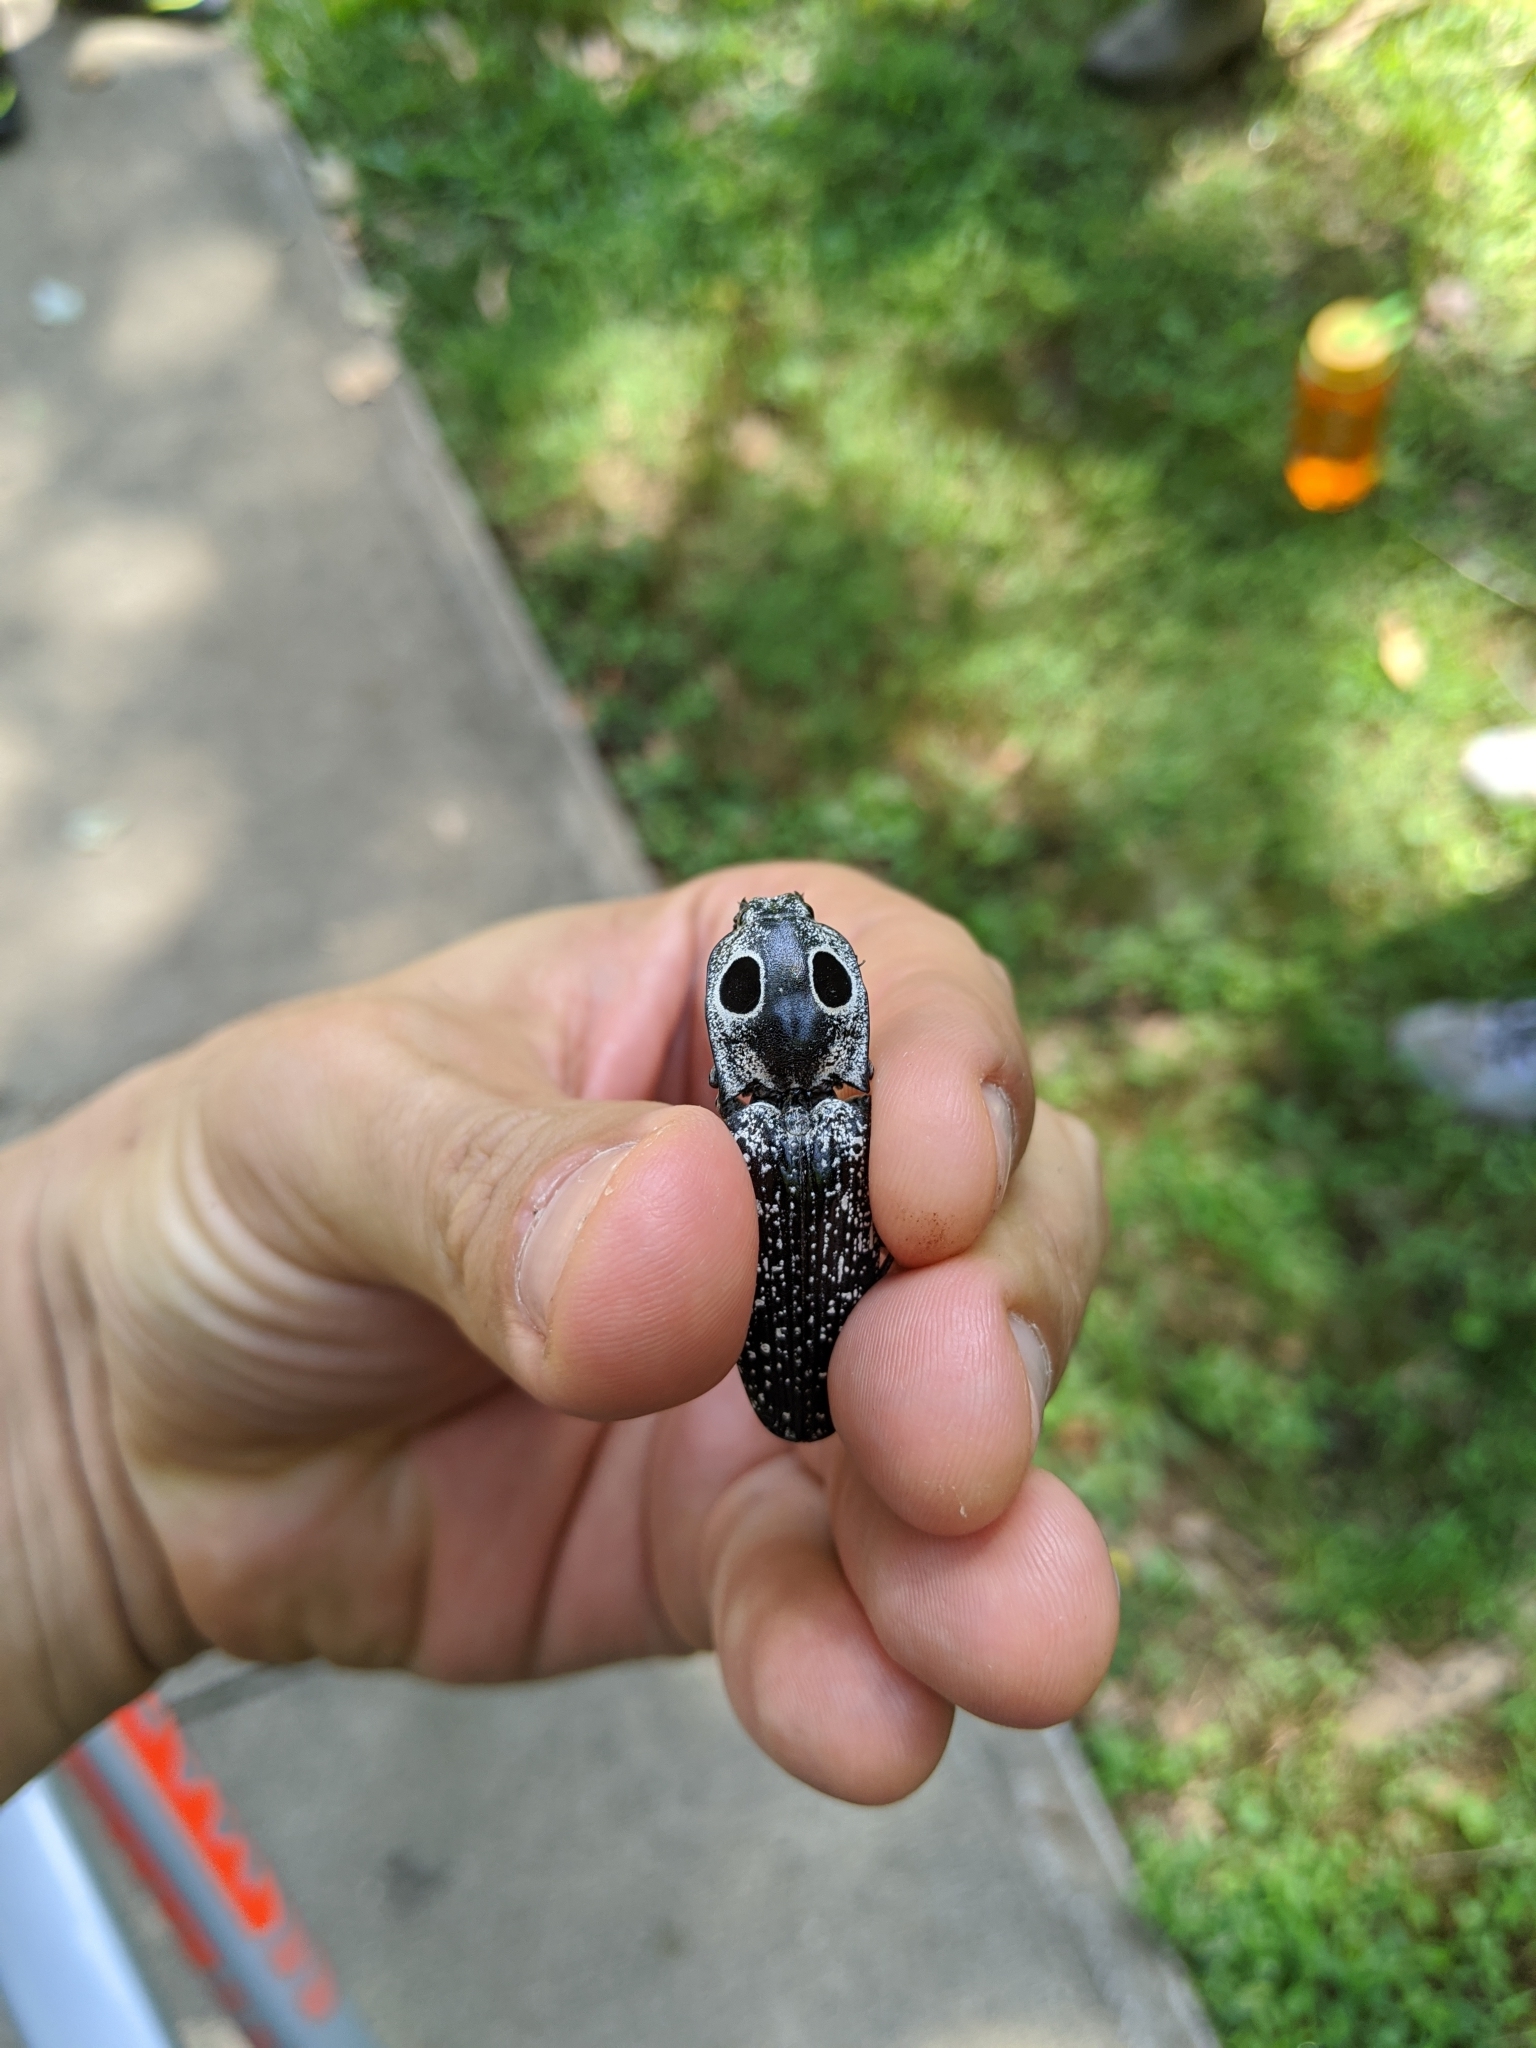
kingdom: Animalia
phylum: Arthropoda
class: Insecta
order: Coleoptera
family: Elateridae
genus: Alaus
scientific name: Alaus oculatus
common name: Eastern eyed click beetle
